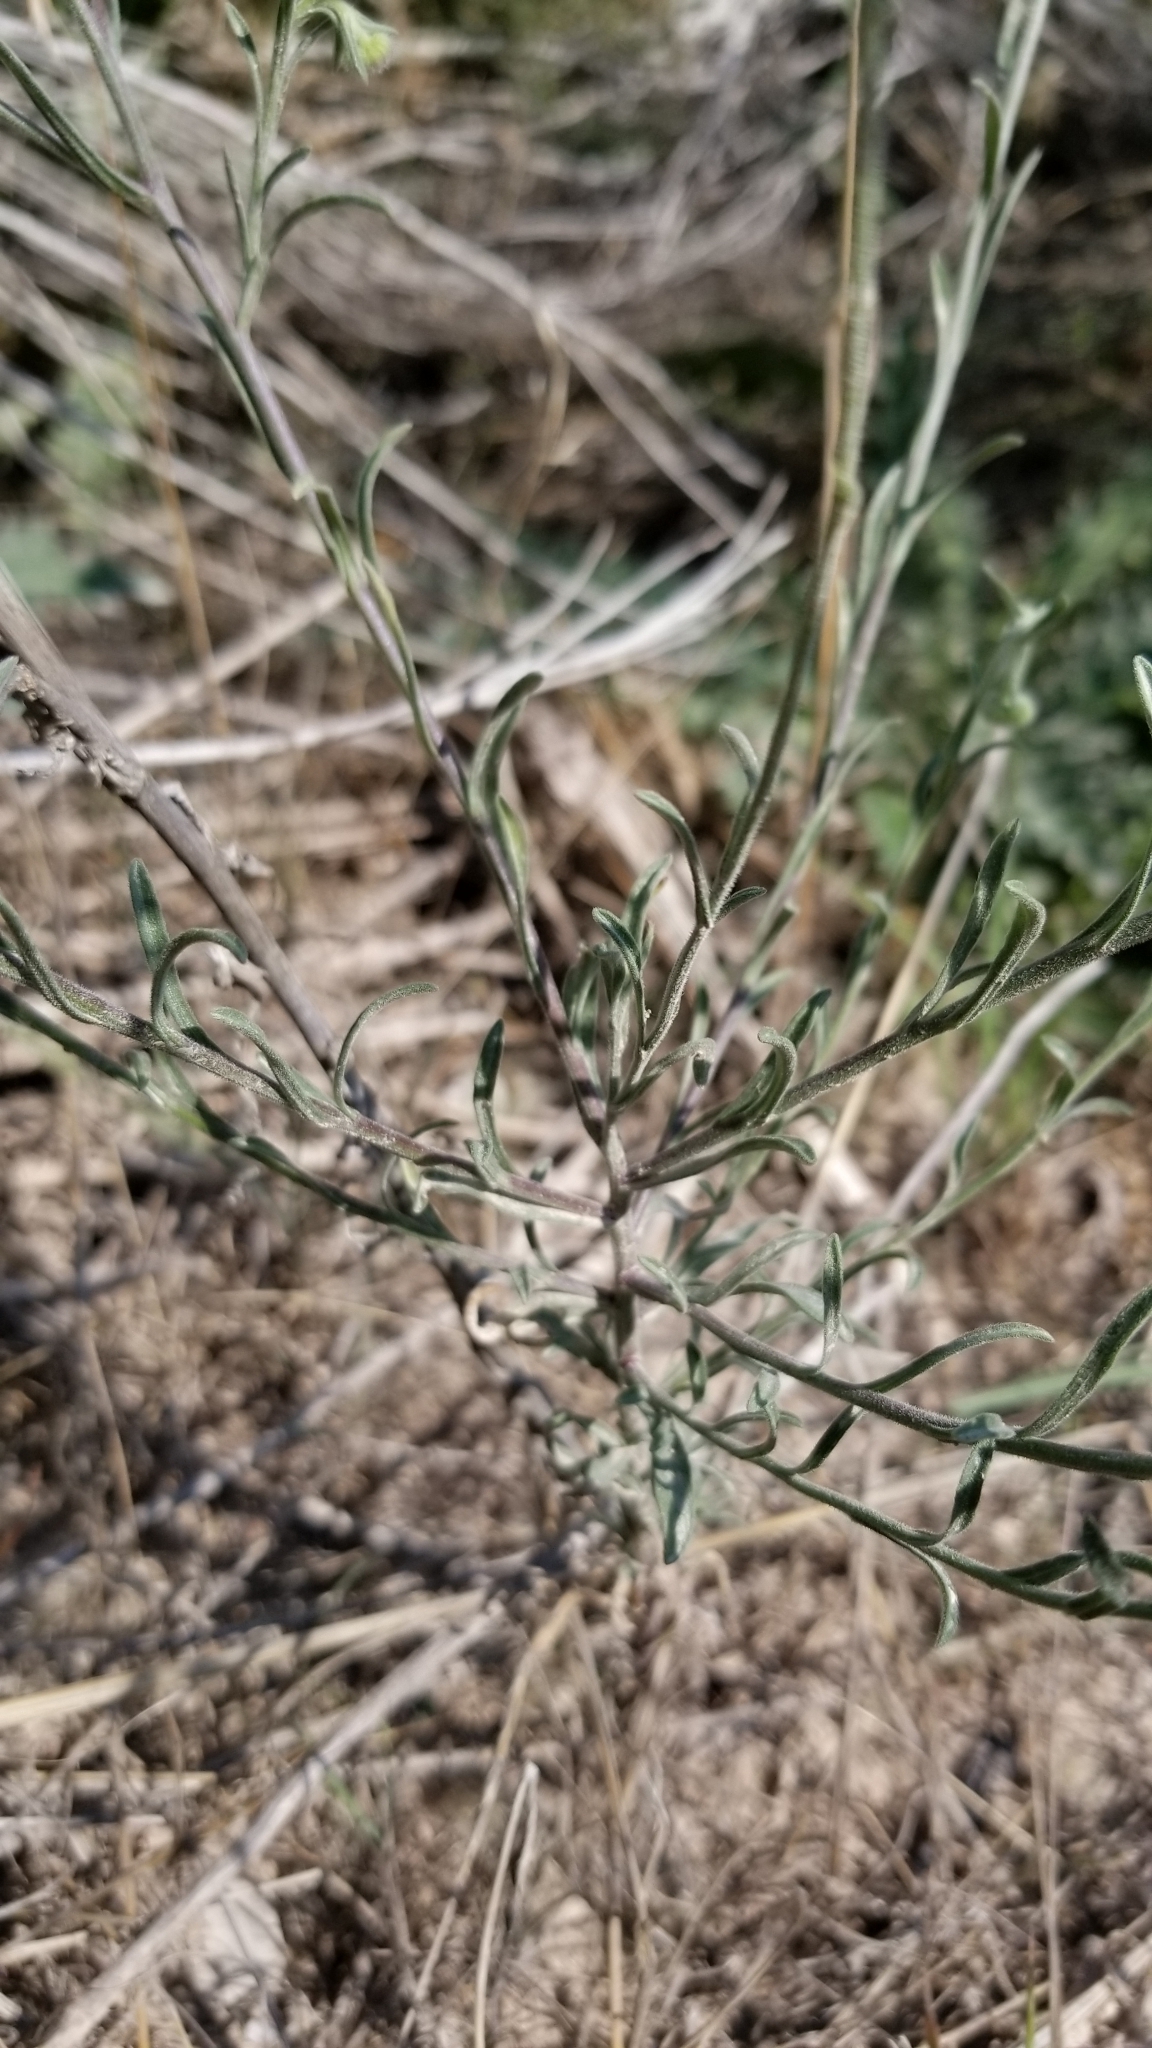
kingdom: Plantae
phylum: Tracheophyta
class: Magnoliopsida
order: Asterales
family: Asteraceae
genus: Erigeron
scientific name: Erigeron divergens
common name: Diffuse fleabane
